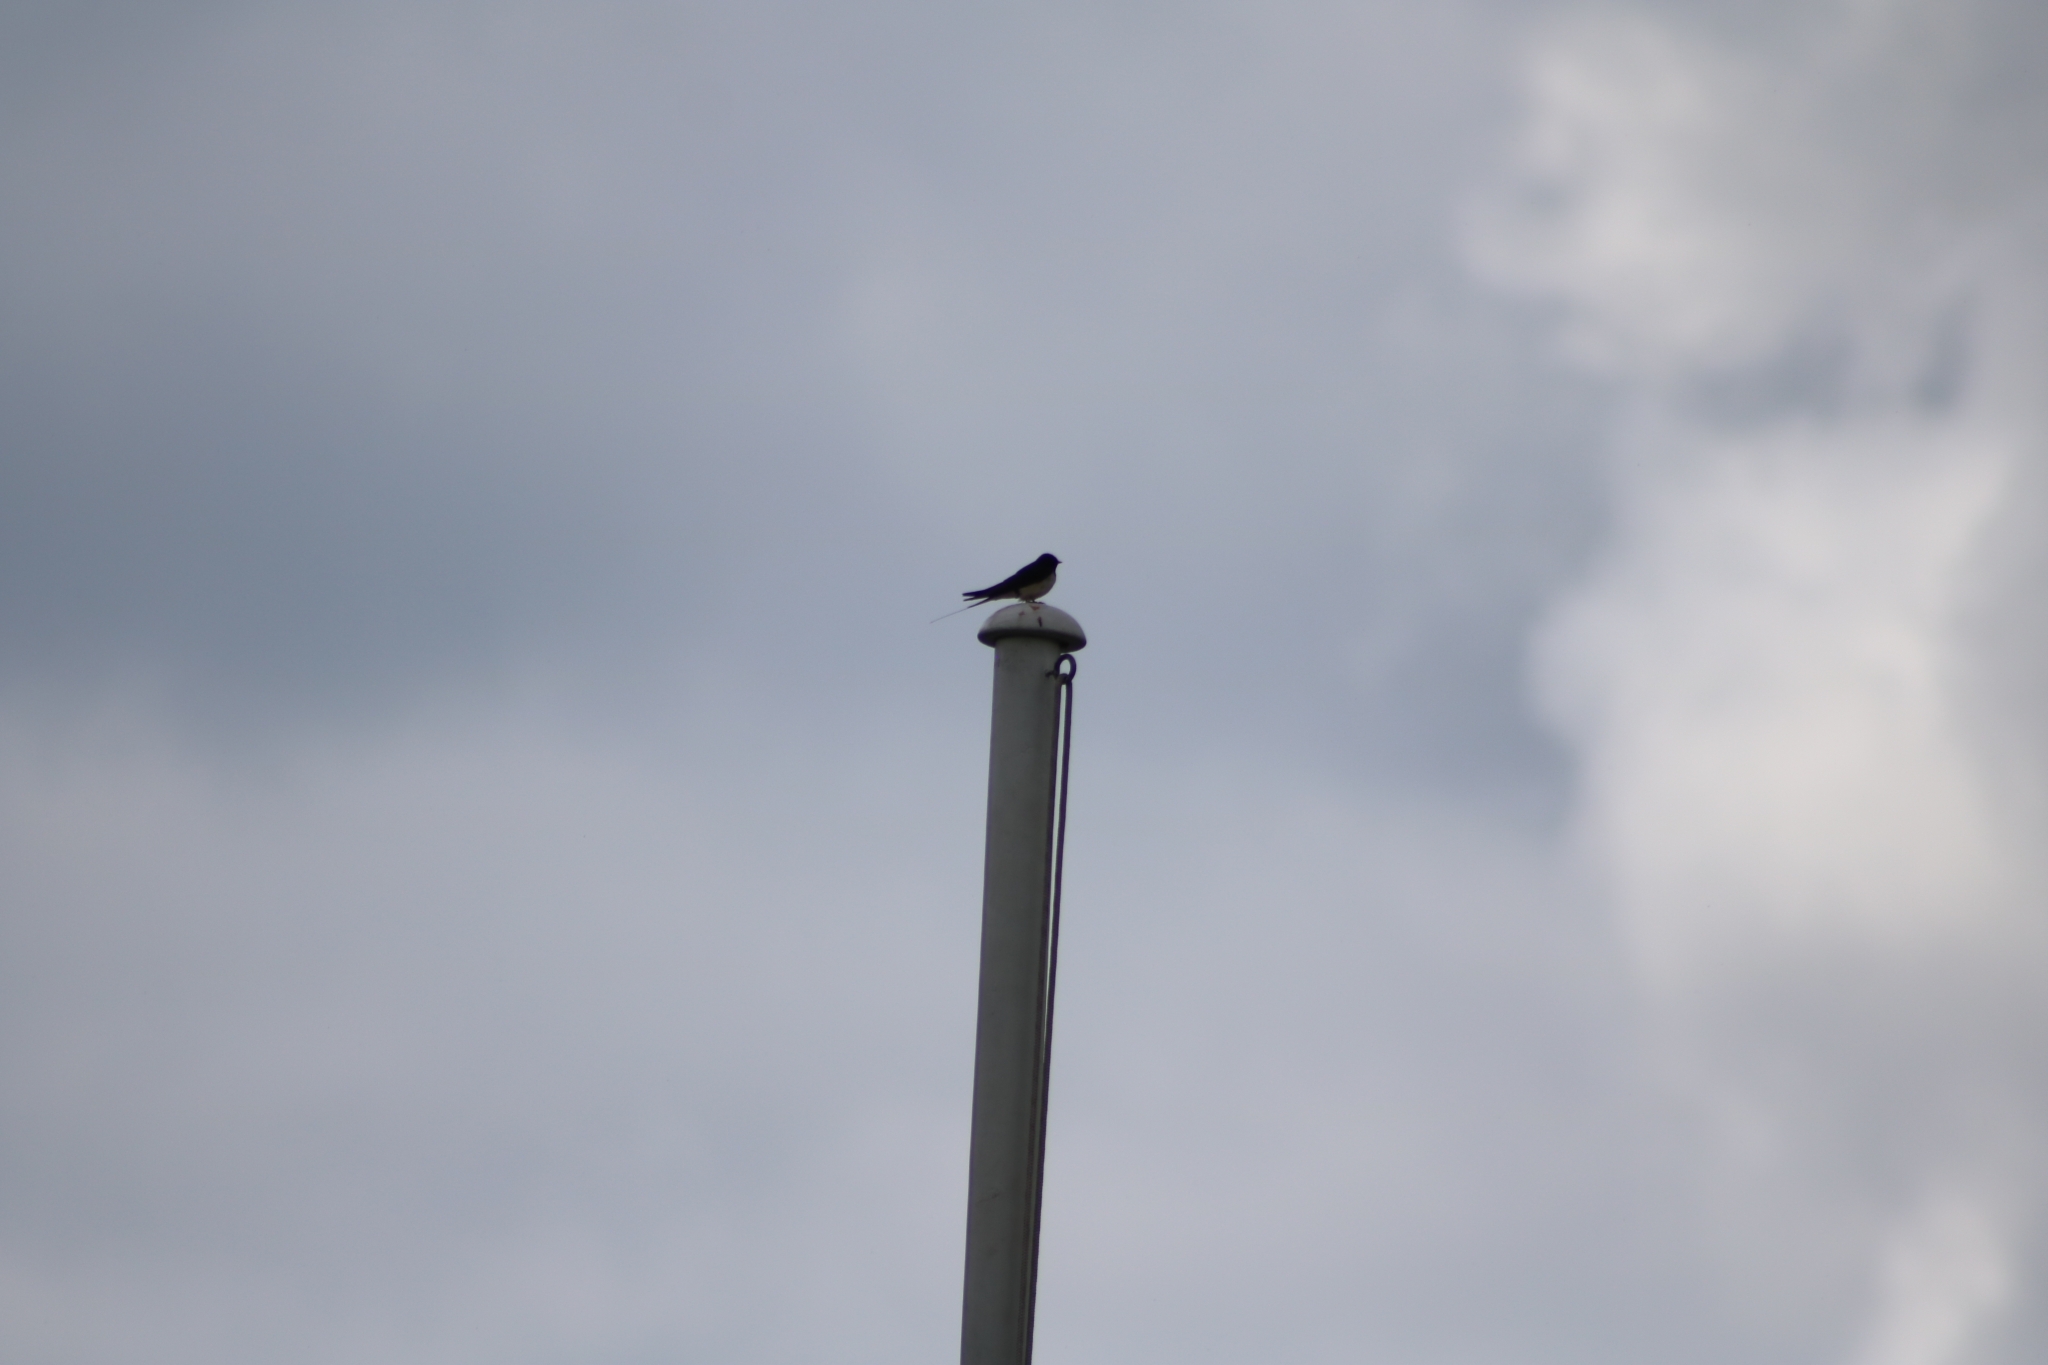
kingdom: Animalia
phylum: Chordata
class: Aves
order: Passeriformes
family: Hirundinidae
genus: Hirundo
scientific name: Hirundo rustica
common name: Barn swallow
